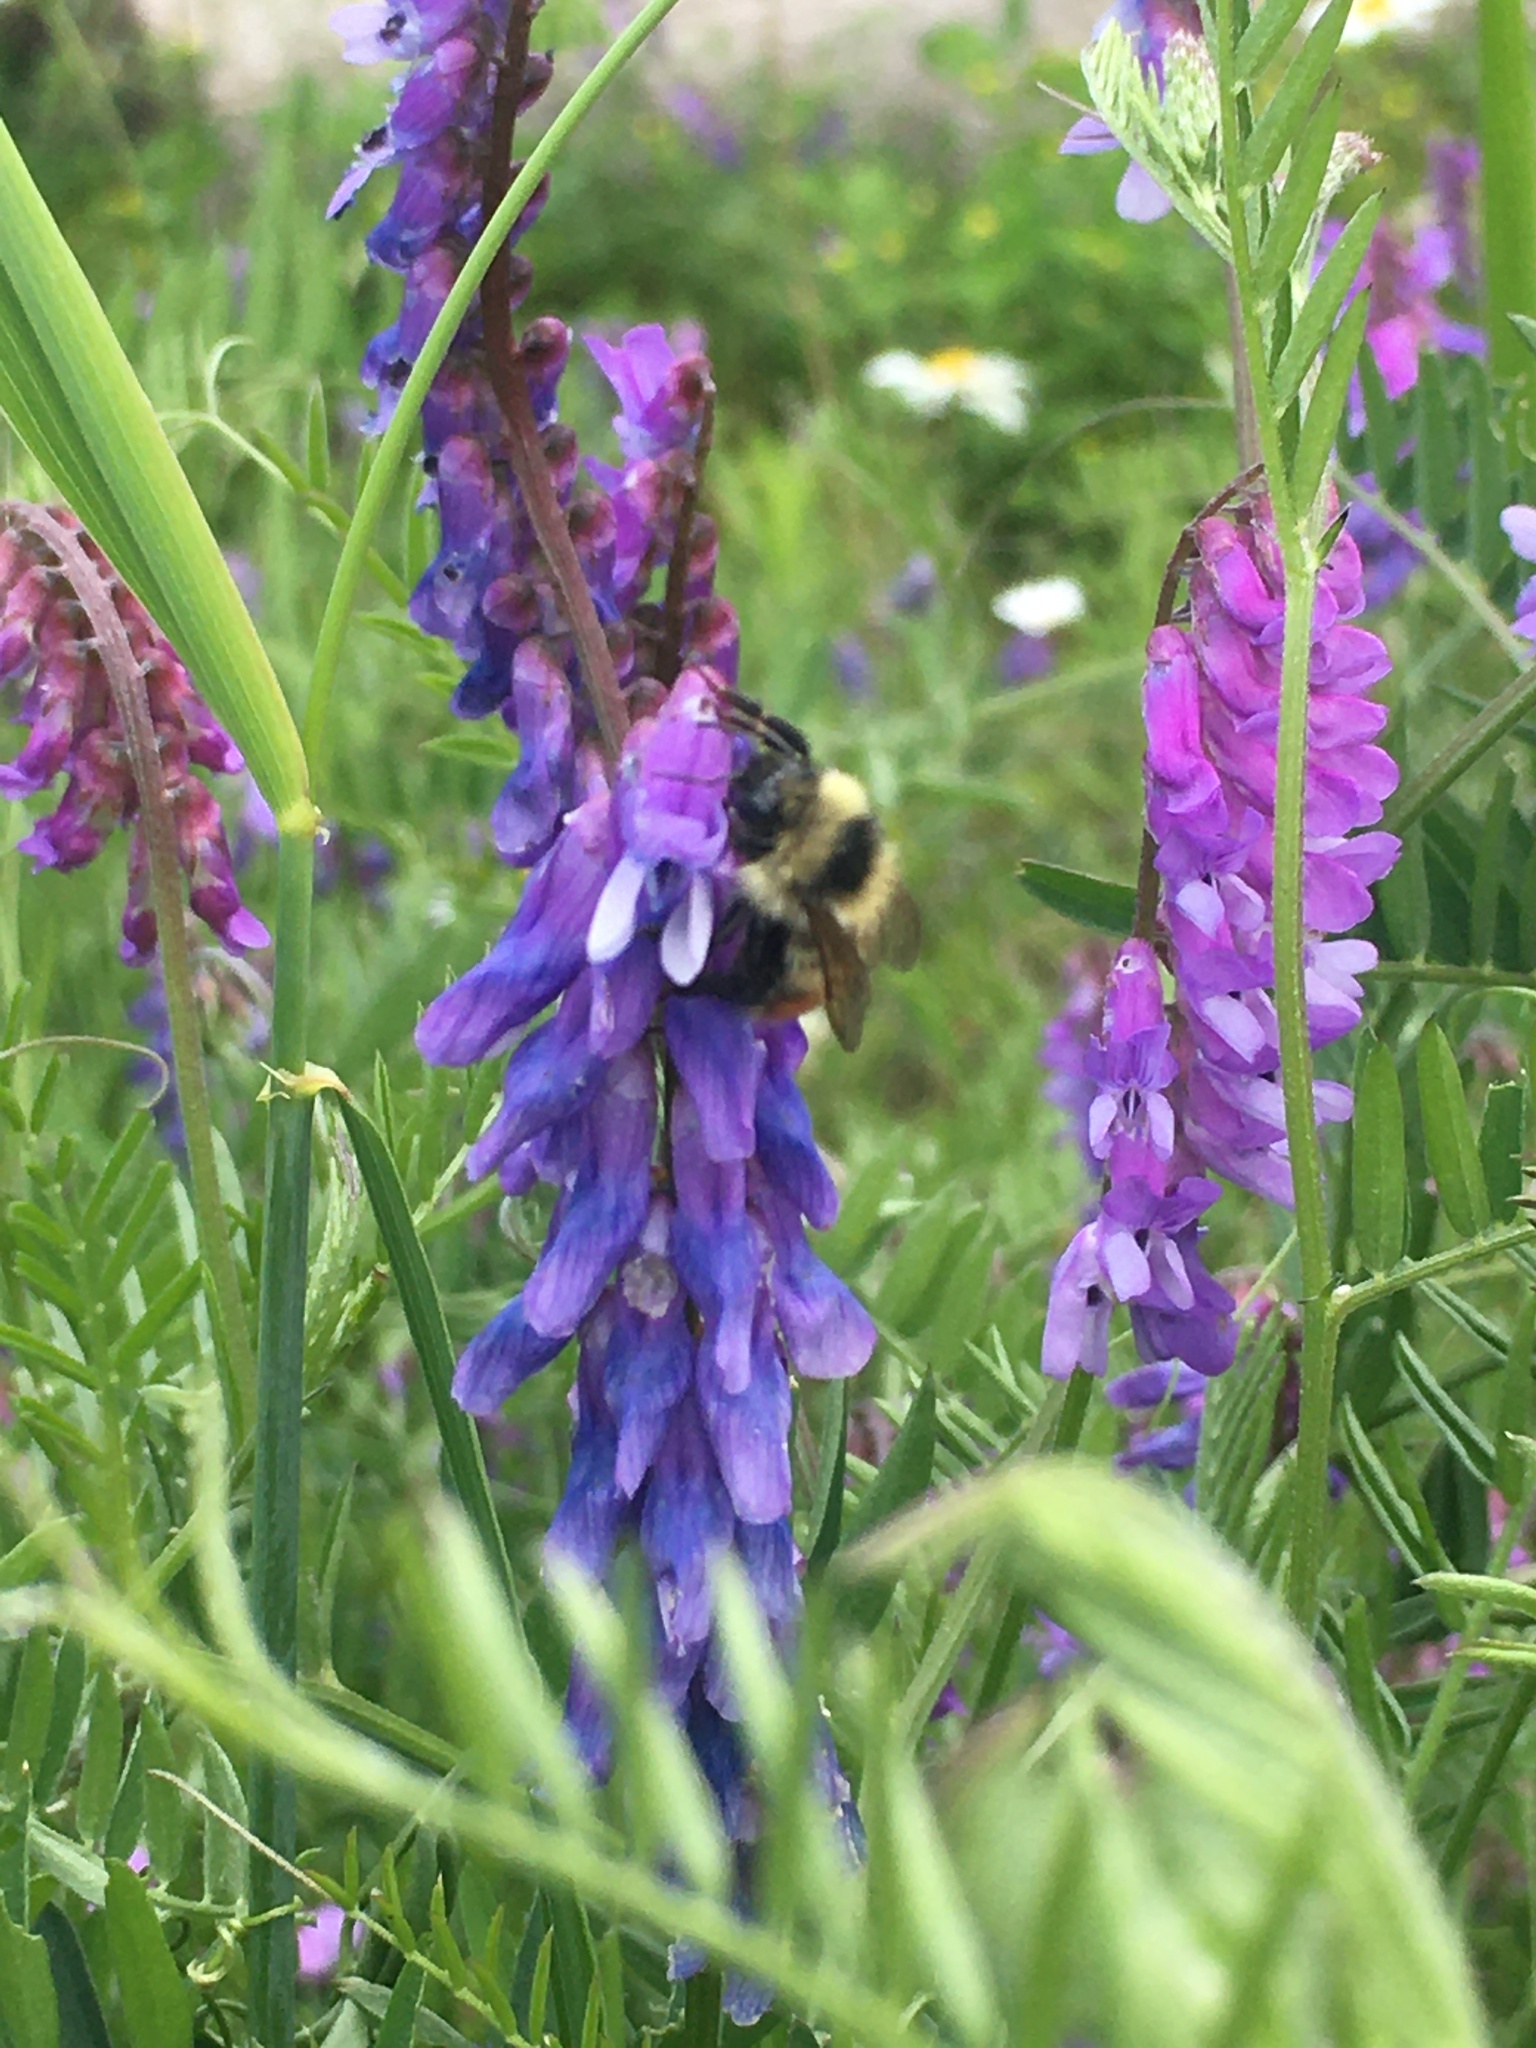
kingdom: Animalia
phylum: Arthropoda
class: Insecta
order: Hymenoptera
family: Apidae
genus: Bombus
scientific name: Bombus rufocinctus
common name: Red-belted bumble bee
